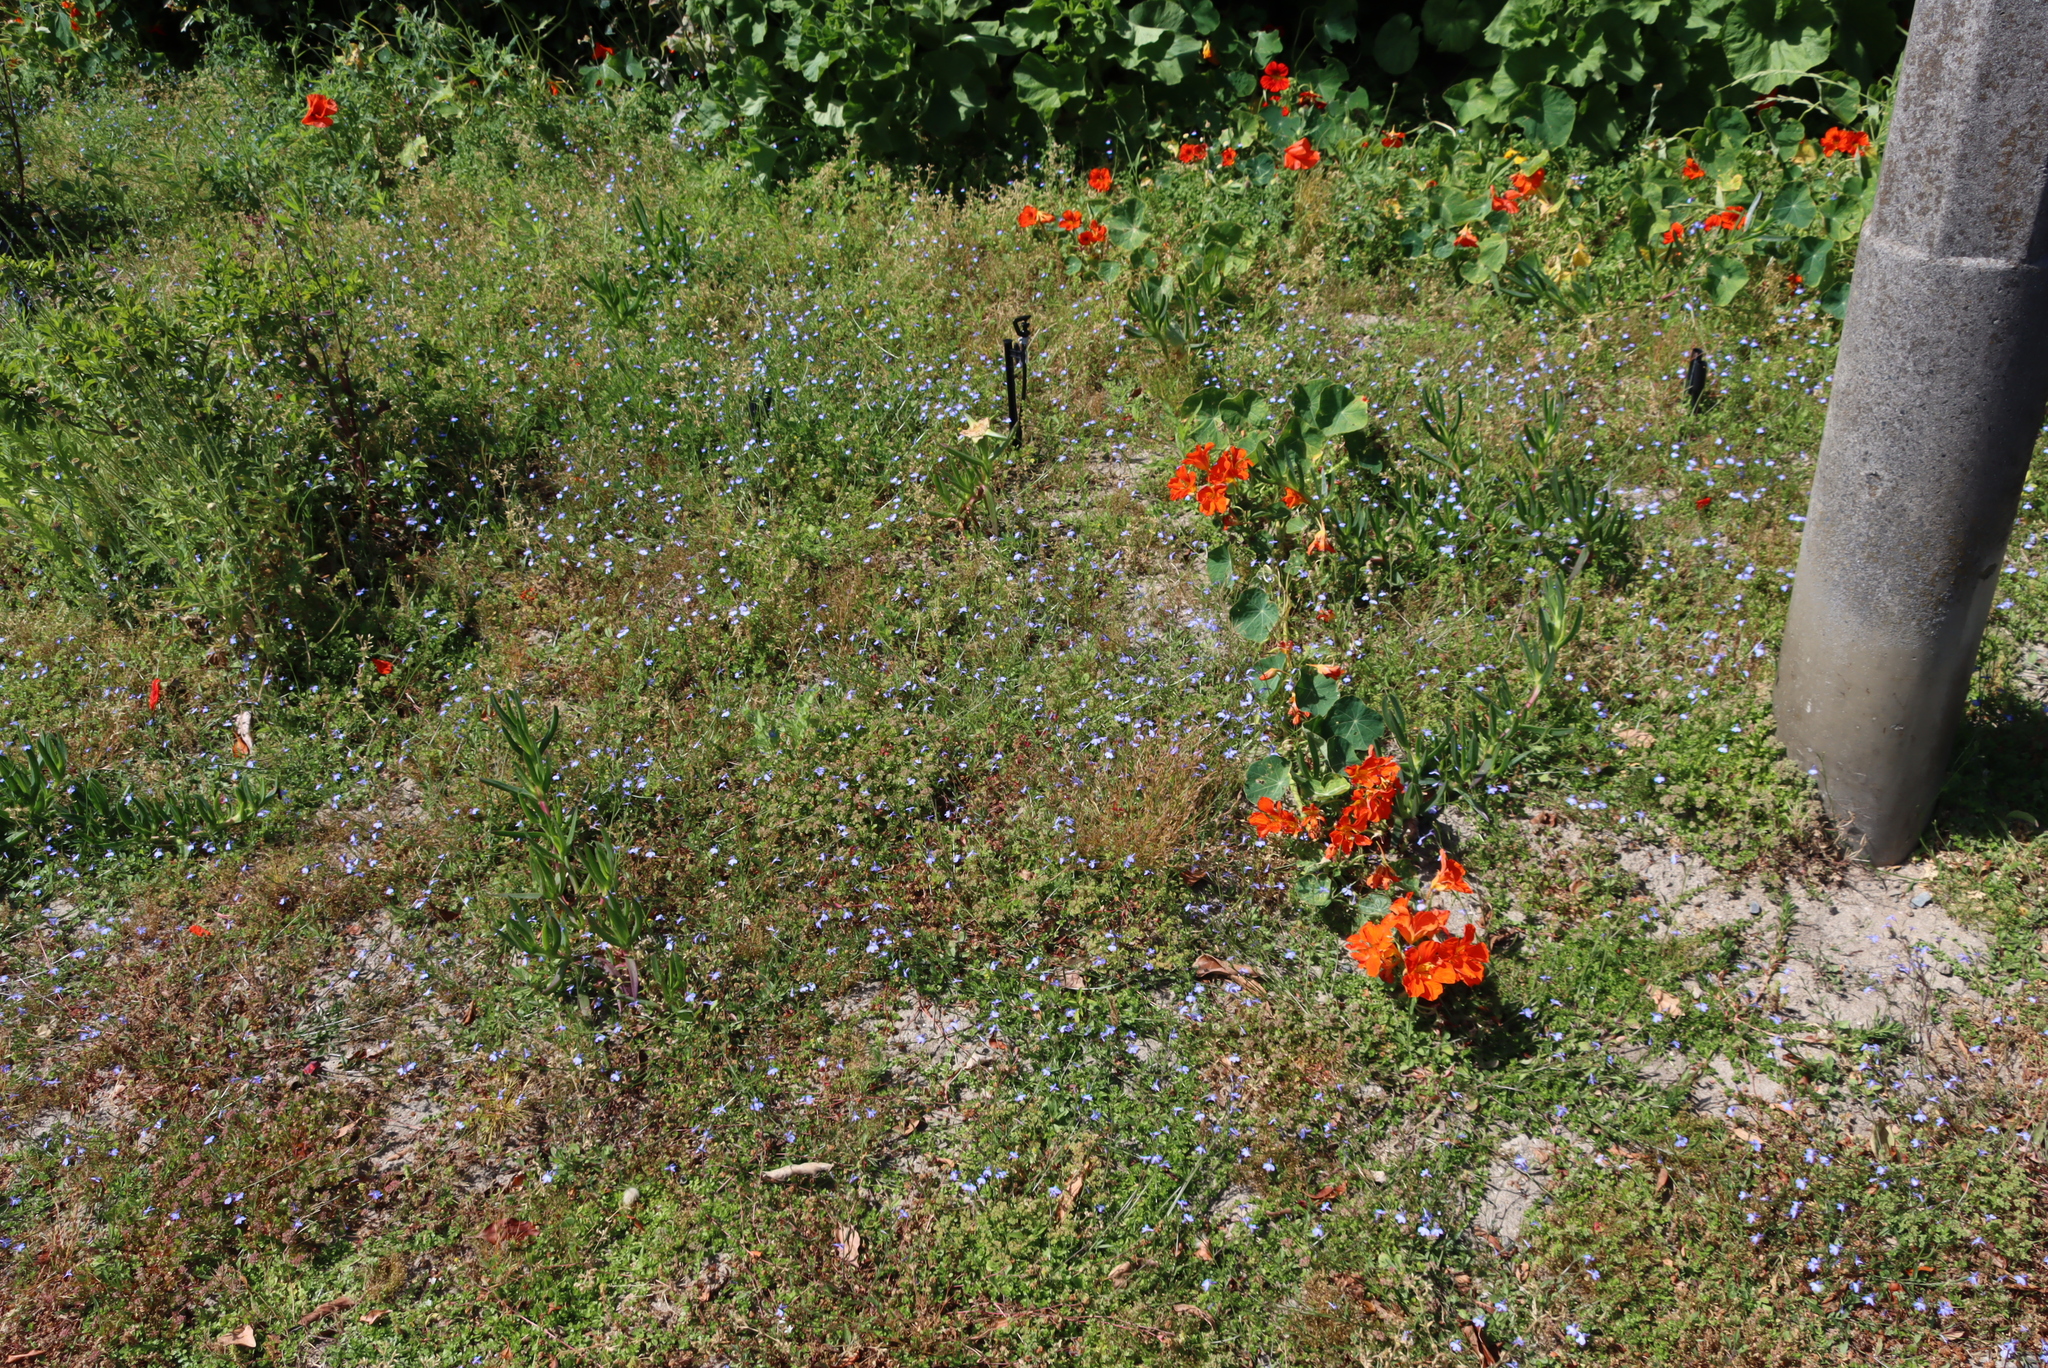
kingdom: Plantae
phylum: Tracheophyta
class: Magnoliopsida
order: Asterales
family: Campanulaceae
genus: Lobelia
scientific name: Lobelia erinus
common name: Edging lobelia
